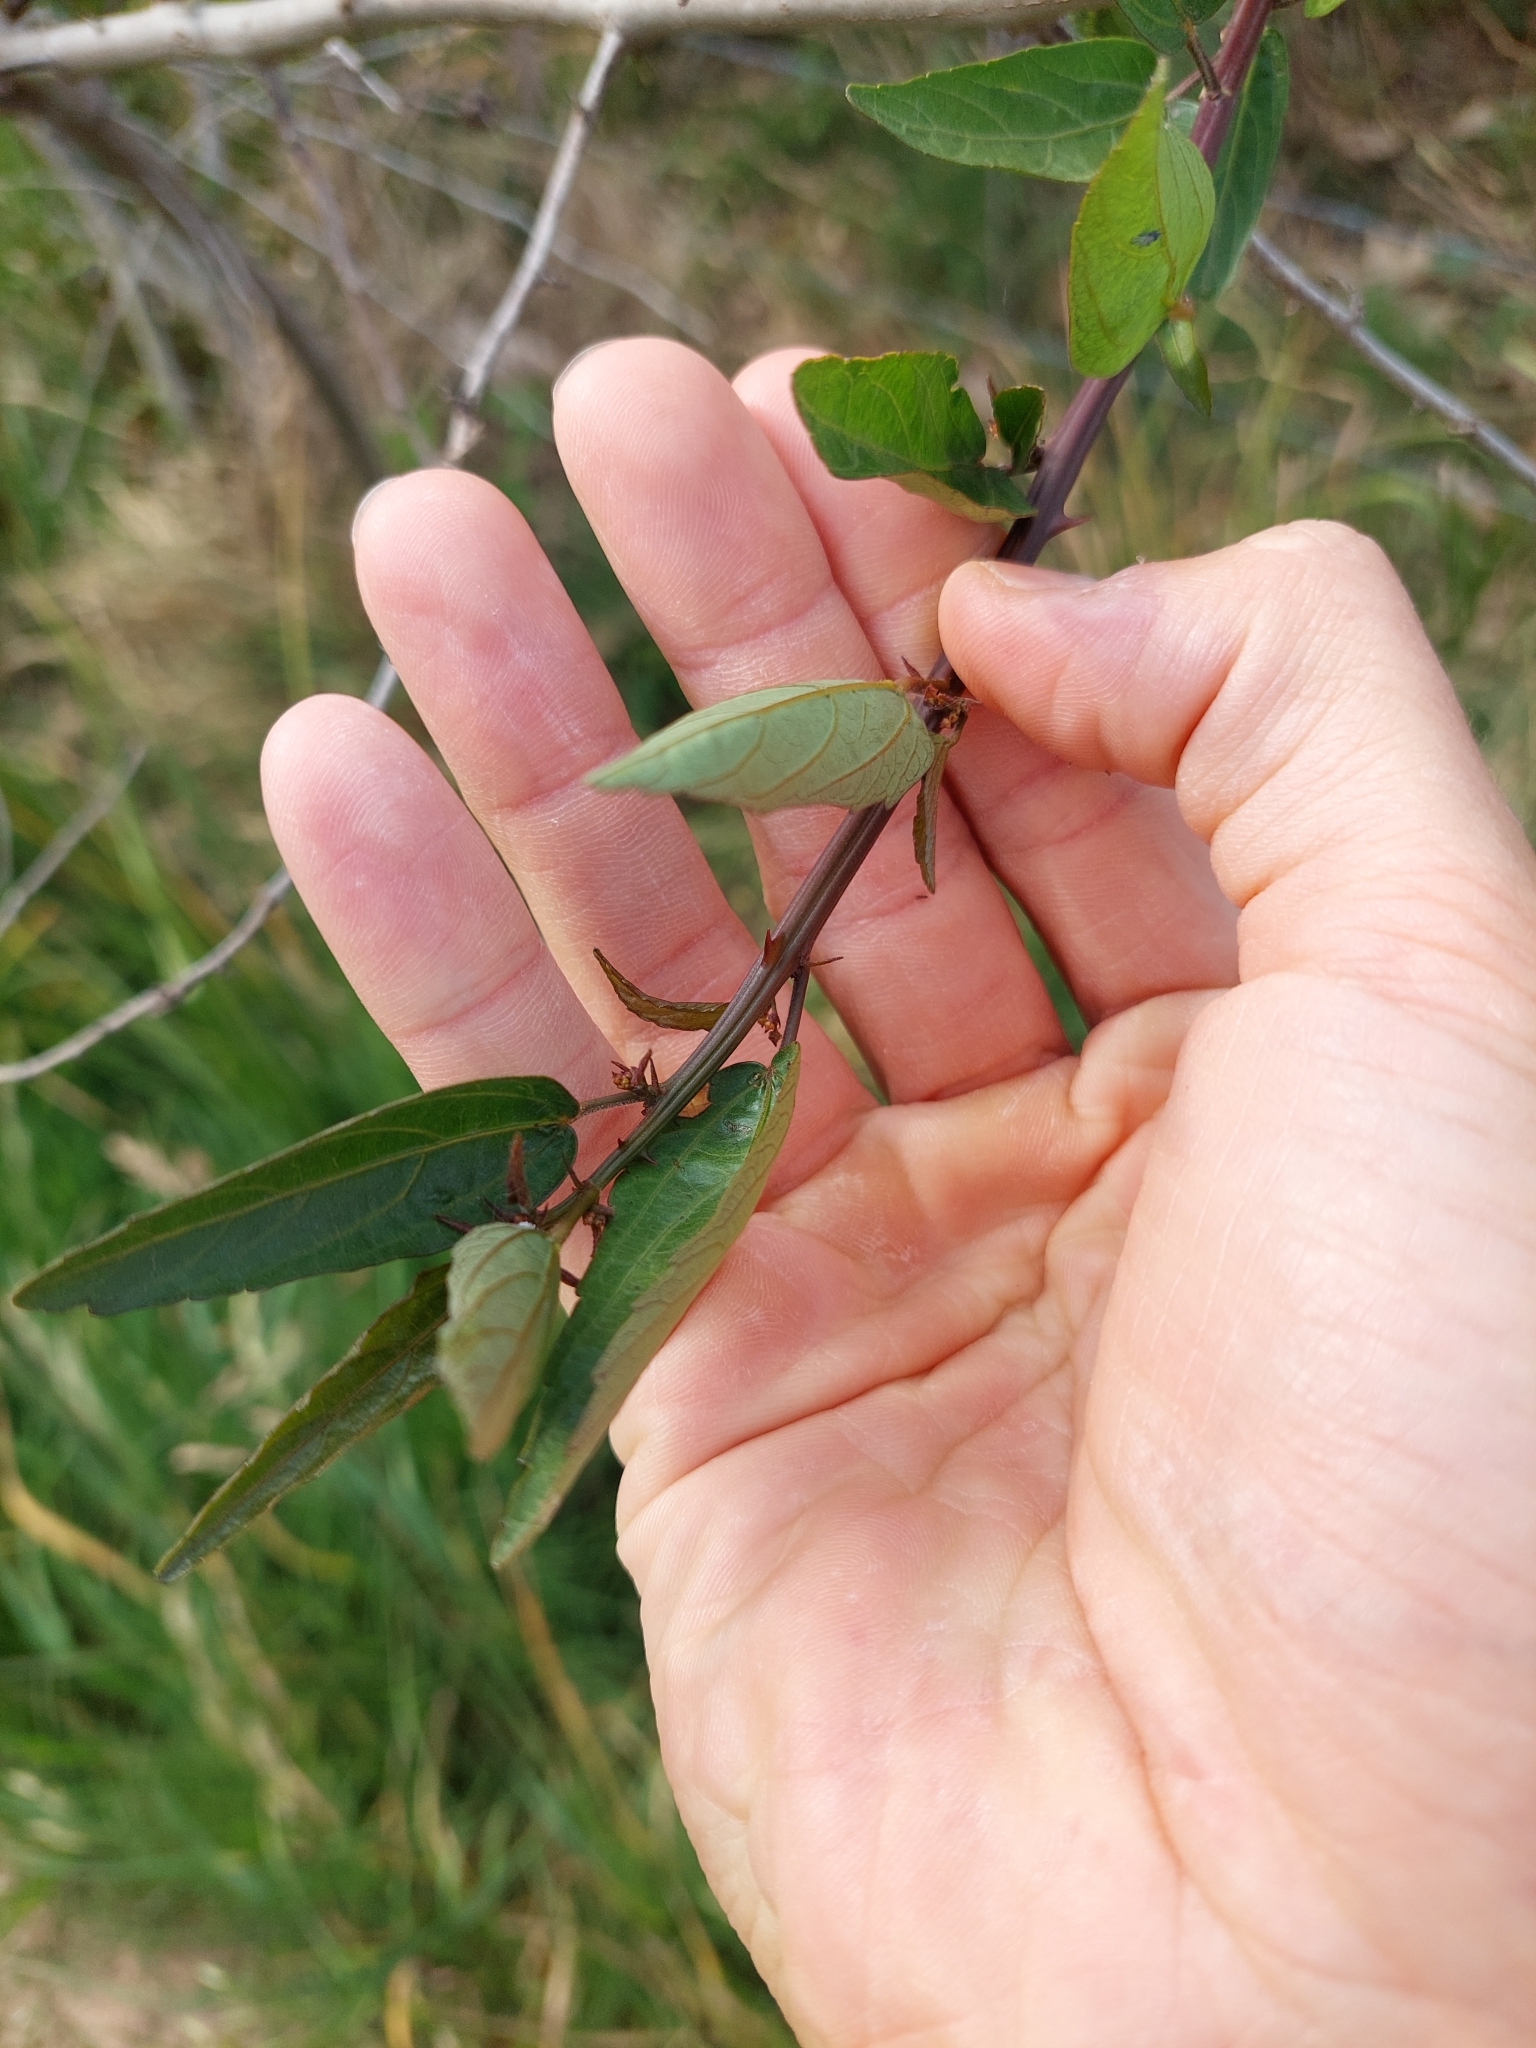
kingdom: Plantae
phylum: Tracheophyta
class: Magnoliopsida
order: Malvales
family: Malvaceae
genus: Byttneria
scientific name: Byttneria filipes
